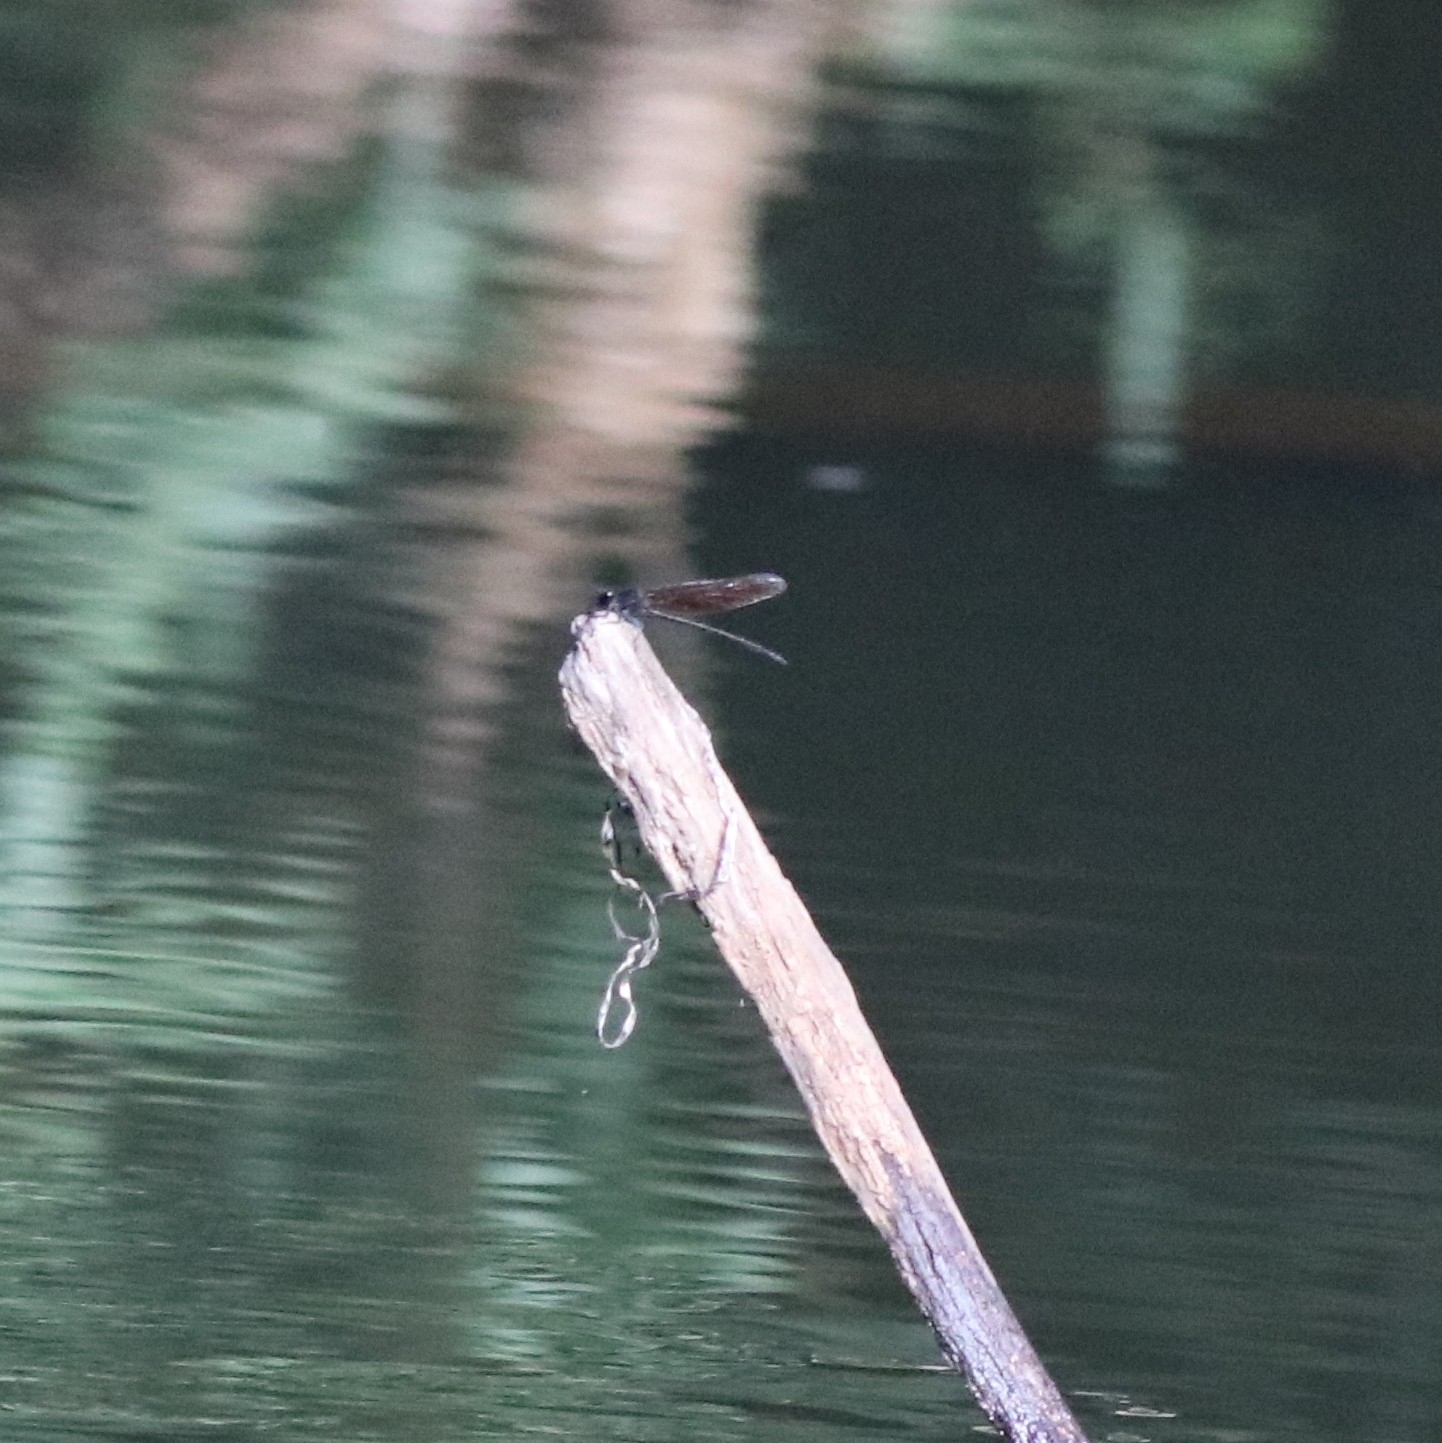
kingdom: Animalia
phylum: Arthropoda
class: Insecta
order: Odonata
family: Euphaeidae
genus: Dysphaea
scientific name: Dysphaea ethela
